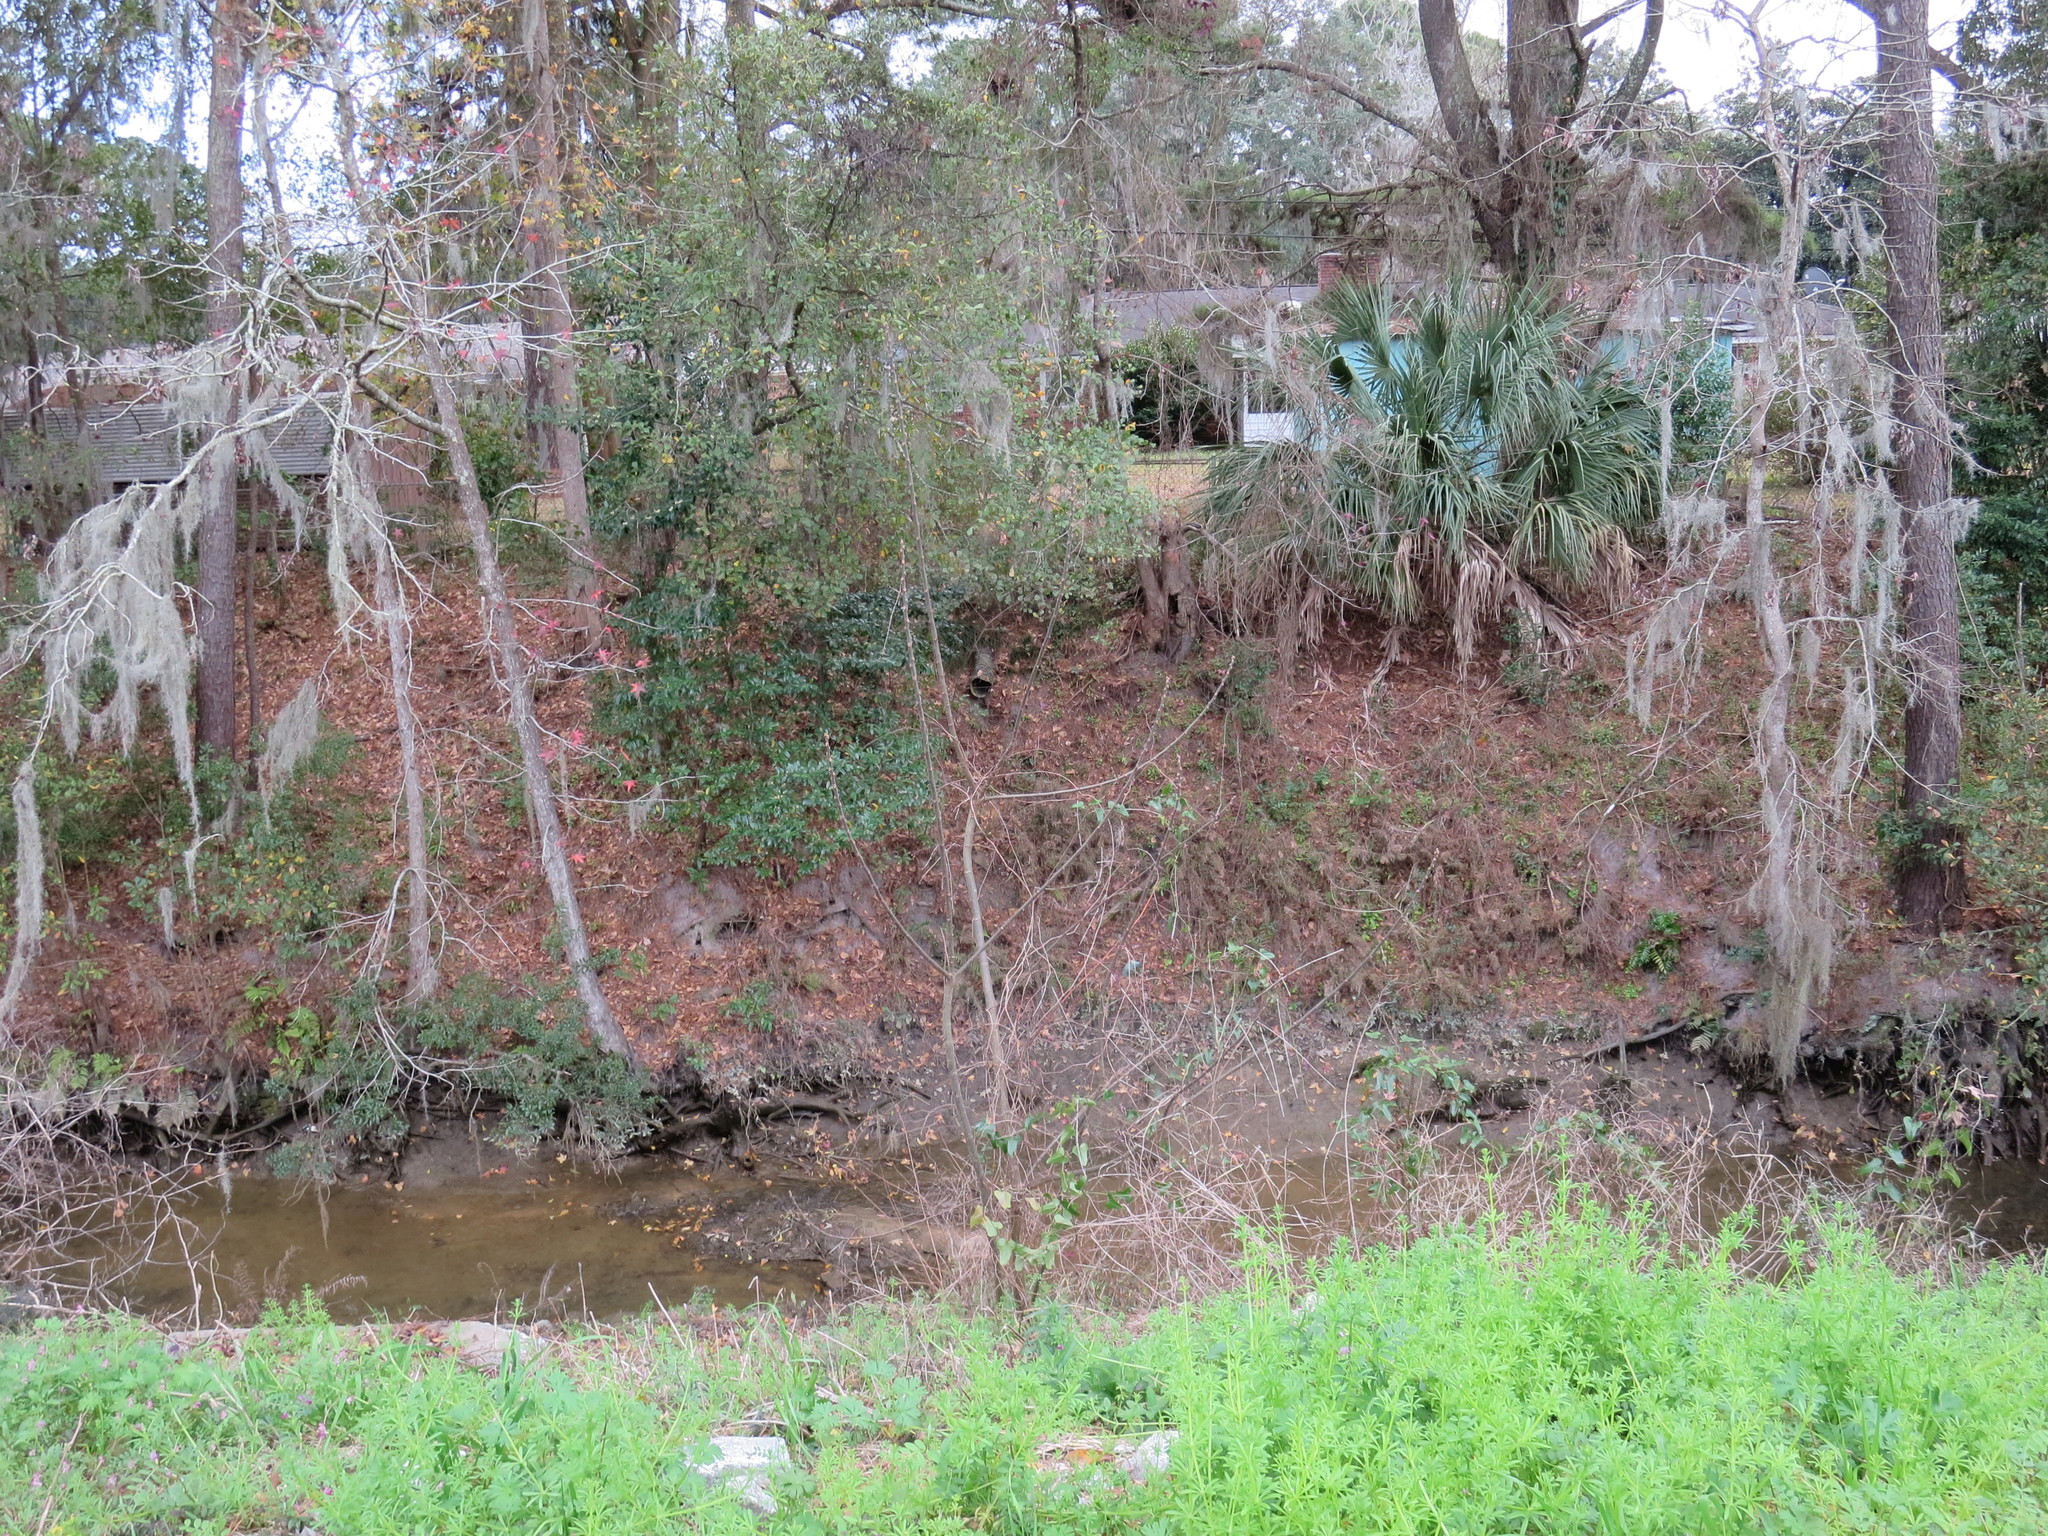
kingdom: Plantae
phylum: Tracheophyta
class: Magnoliopsida
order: Sapindales
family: Meliaceae
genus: Melia
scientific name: Melia azedarach
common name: Chinaberrytree
